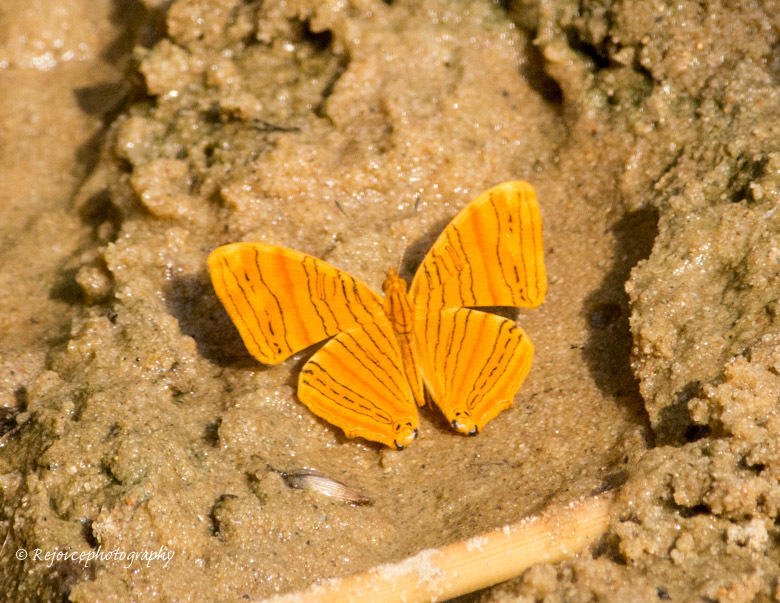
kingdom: Animalia
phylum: Arthropoda
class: Insecta
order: Lepidoptera
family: Nymphalidae
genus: Chersonesia
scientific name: Chersonesia rahria
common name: Wavy maplet
